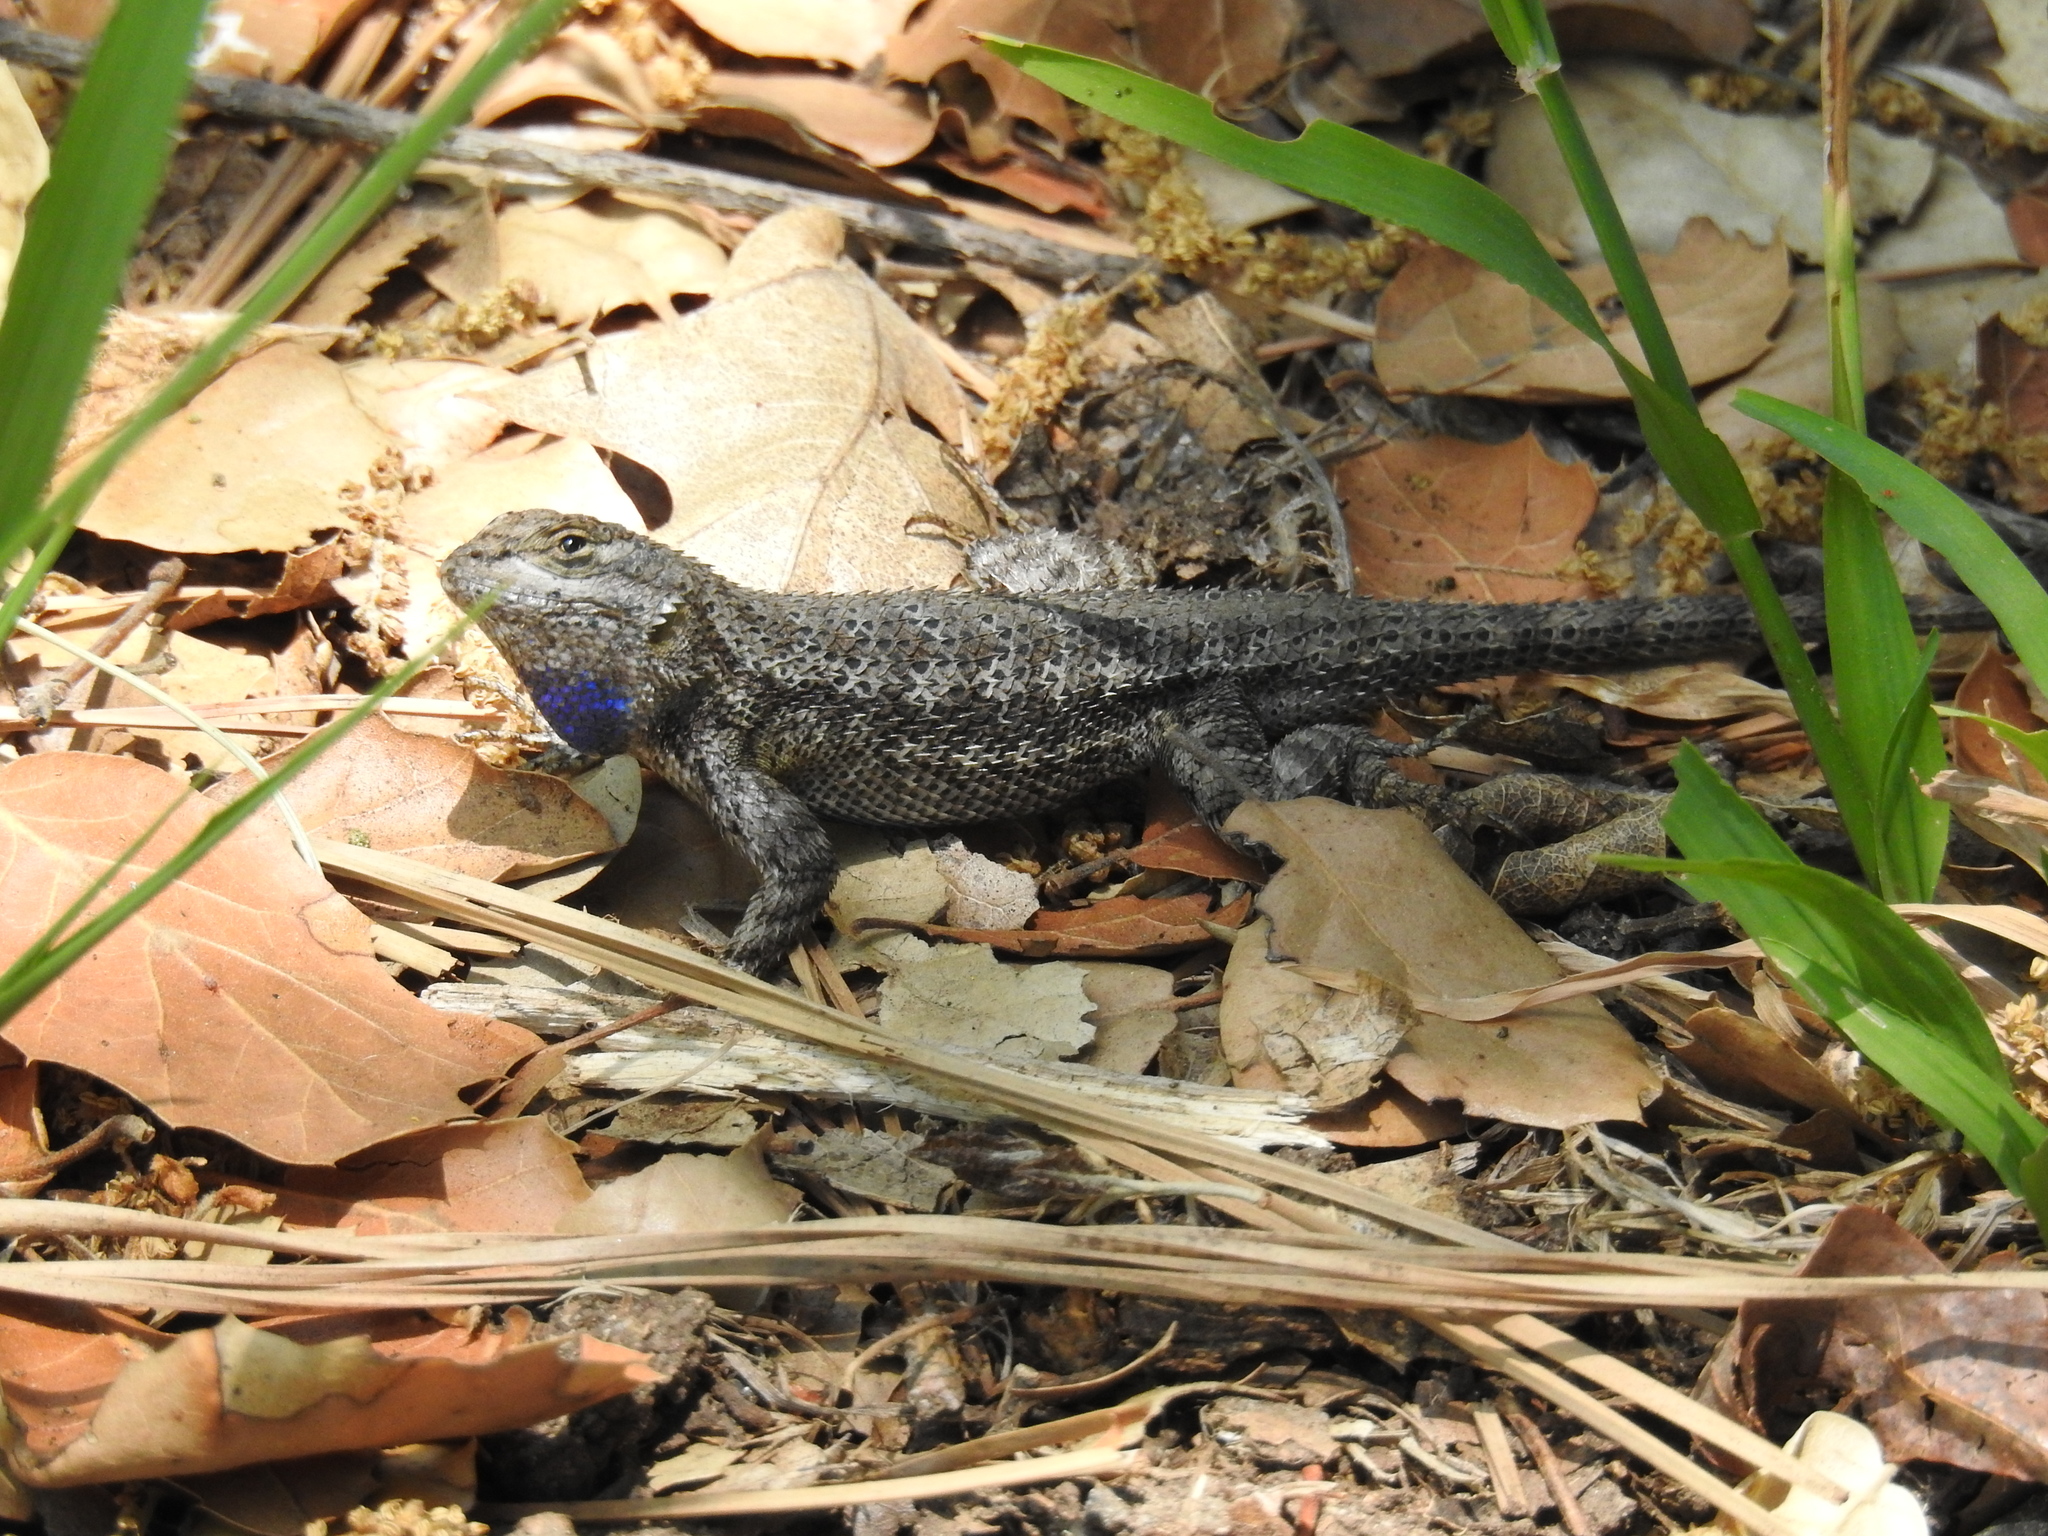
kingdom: Animalia
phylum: Chordata
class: Squamata
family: Phrynosomatidae
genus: Sceloporus
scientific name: Sceloporus occidentalis
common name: Western fence lizard
